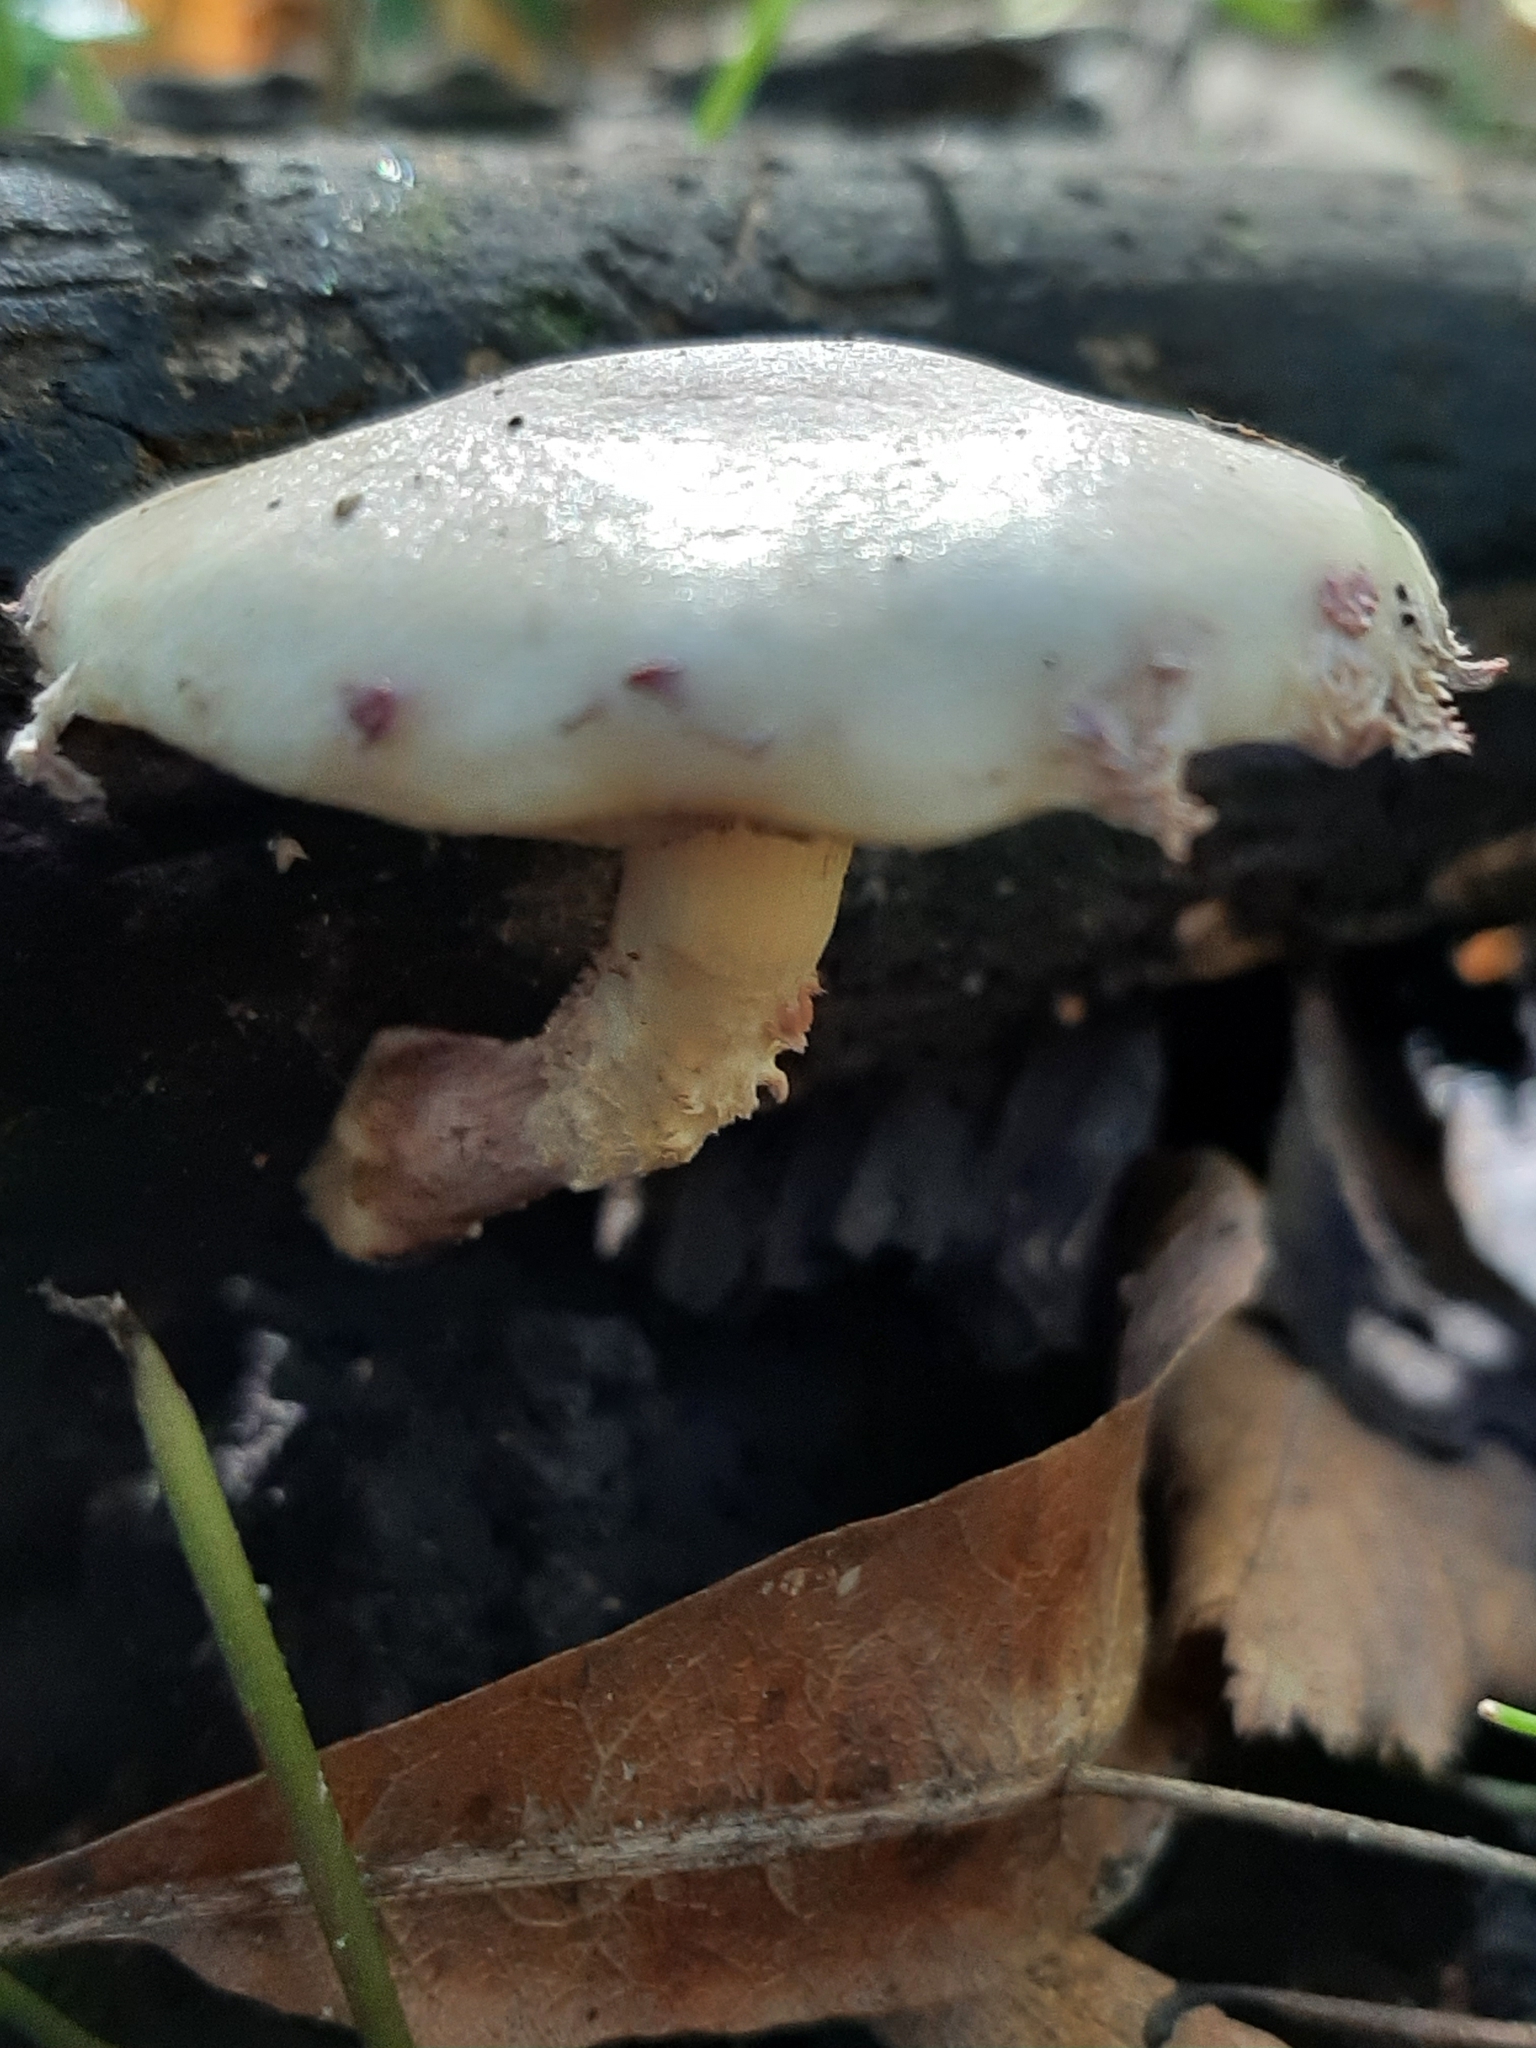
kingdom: Fungi
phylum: Basidiomycota
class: Agaricomycetes
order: Agaricales
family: Strophariaceae
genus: Pholiota
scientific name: Pholiota polychroa
